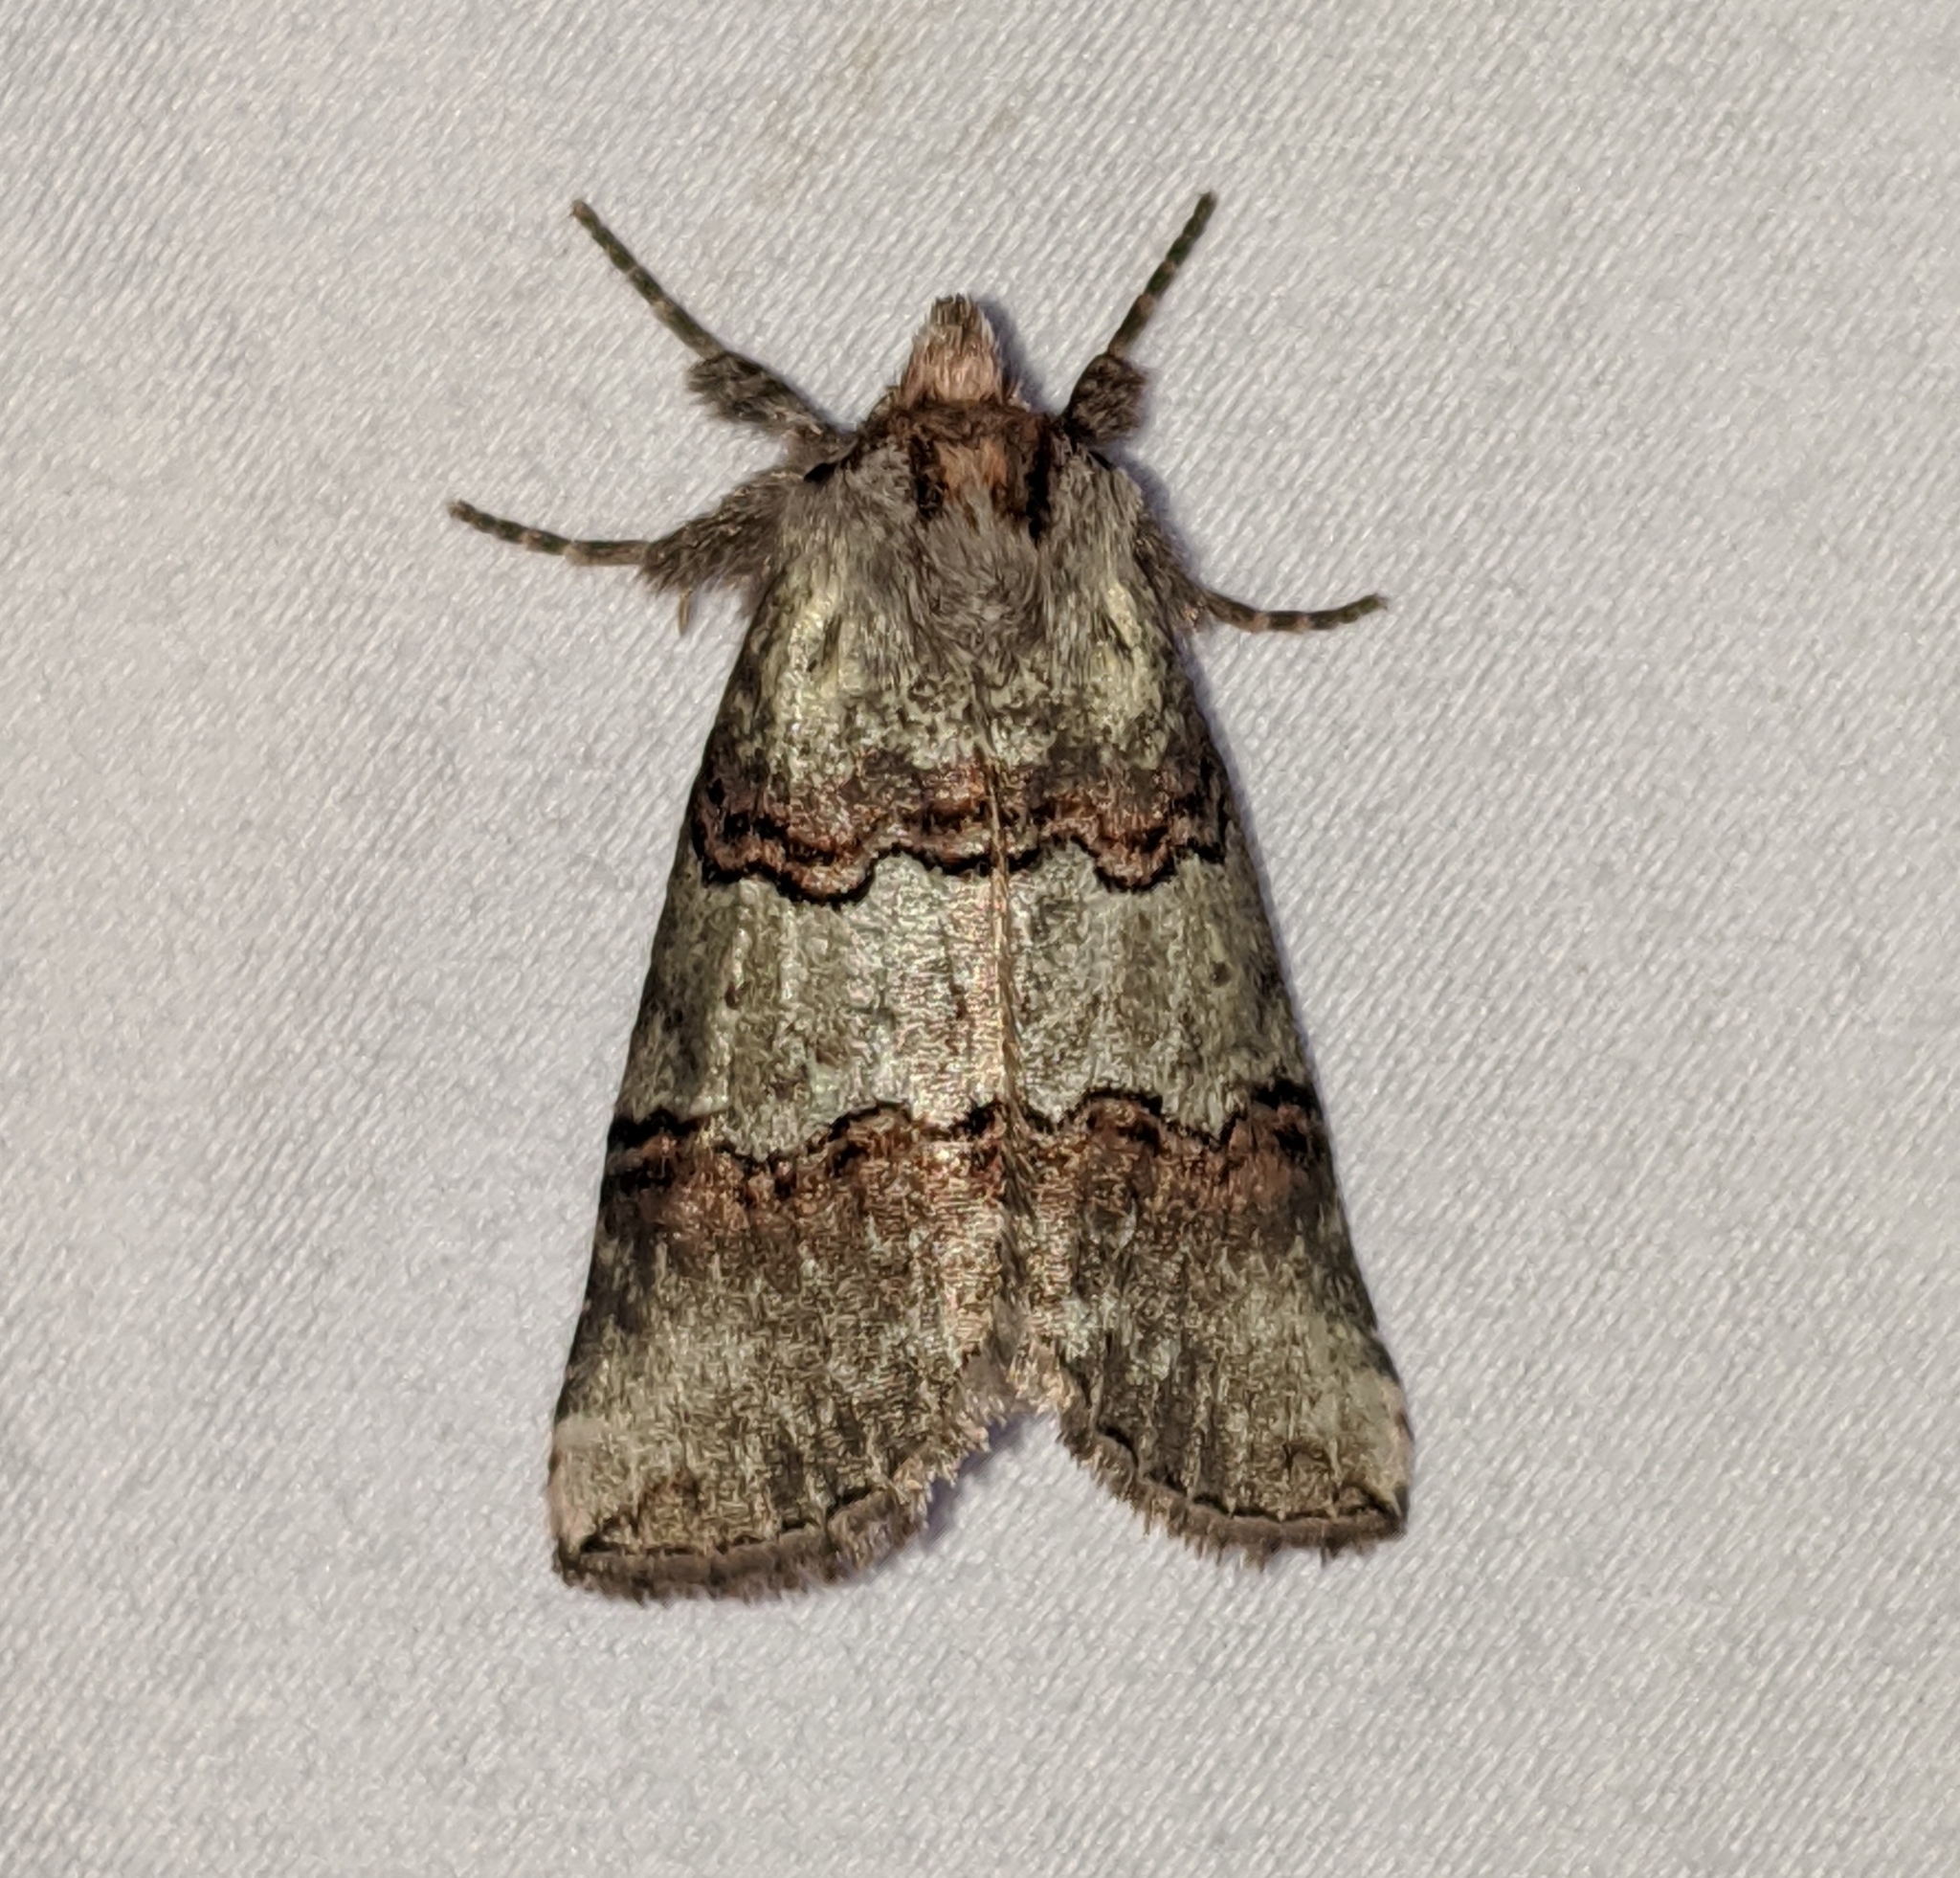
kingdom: Animalia
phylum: Arthropoda
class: Insecta
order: Lepidoptera
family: Drepanidae
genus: Ceranemota
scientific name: Ceranemota fasciata
